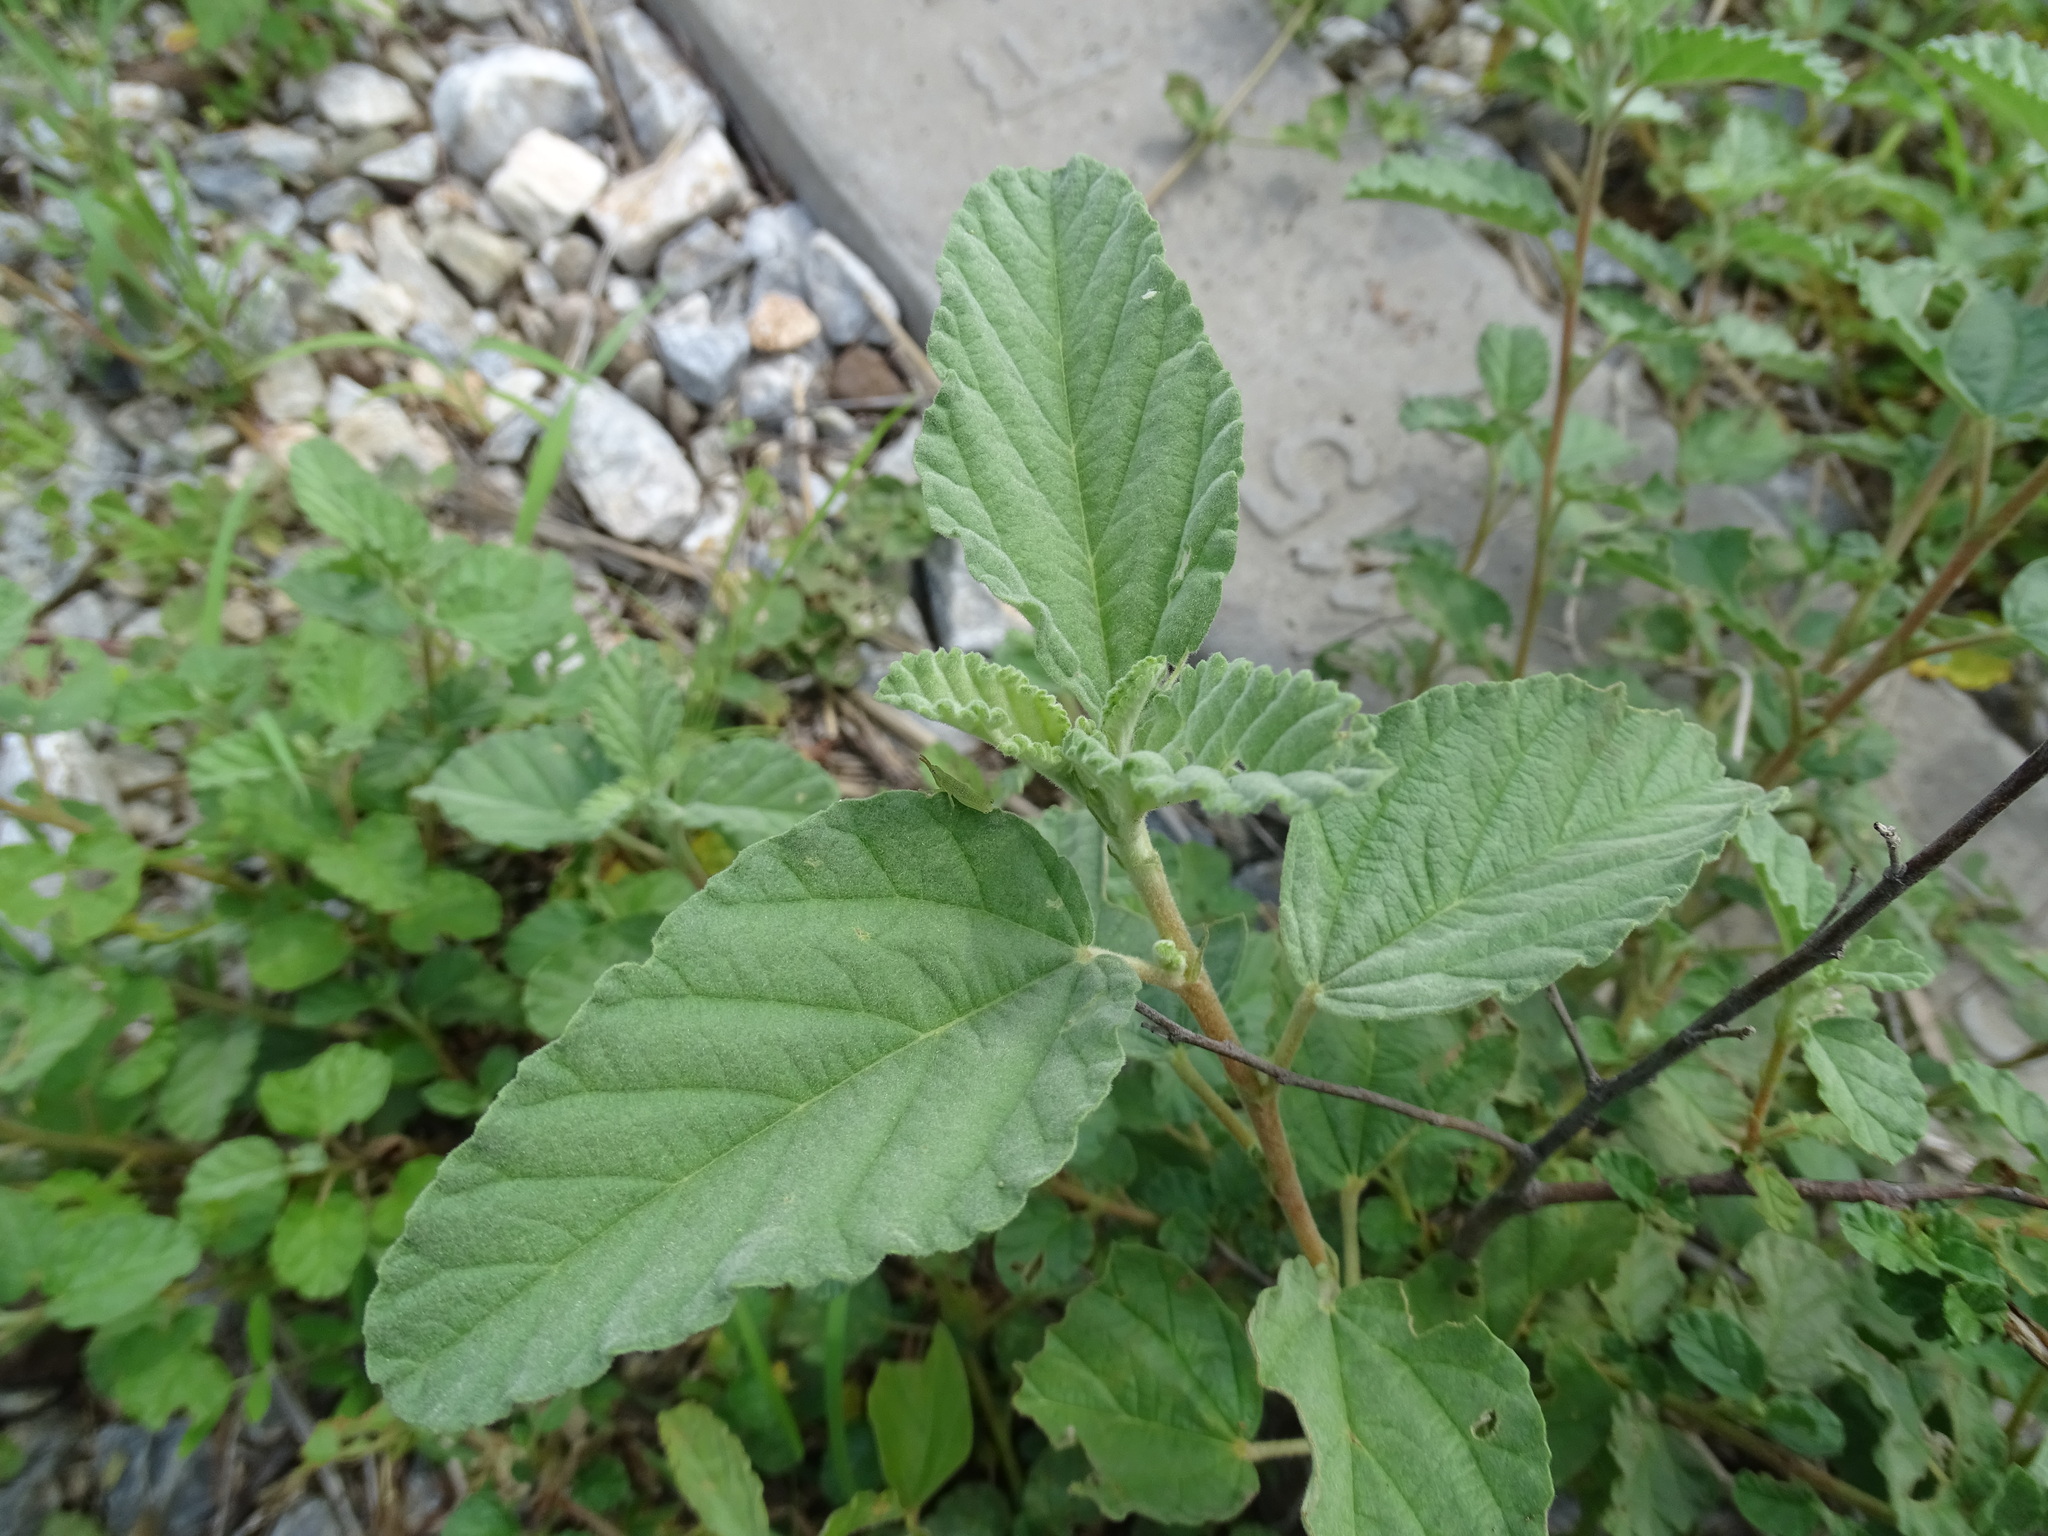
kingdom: Plantae
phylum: Tracheophyta
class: Magnoliopsida
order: Malvales
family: Malvaceae
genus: Waltheria
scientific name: Waltheria indica
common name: Leather-coat
